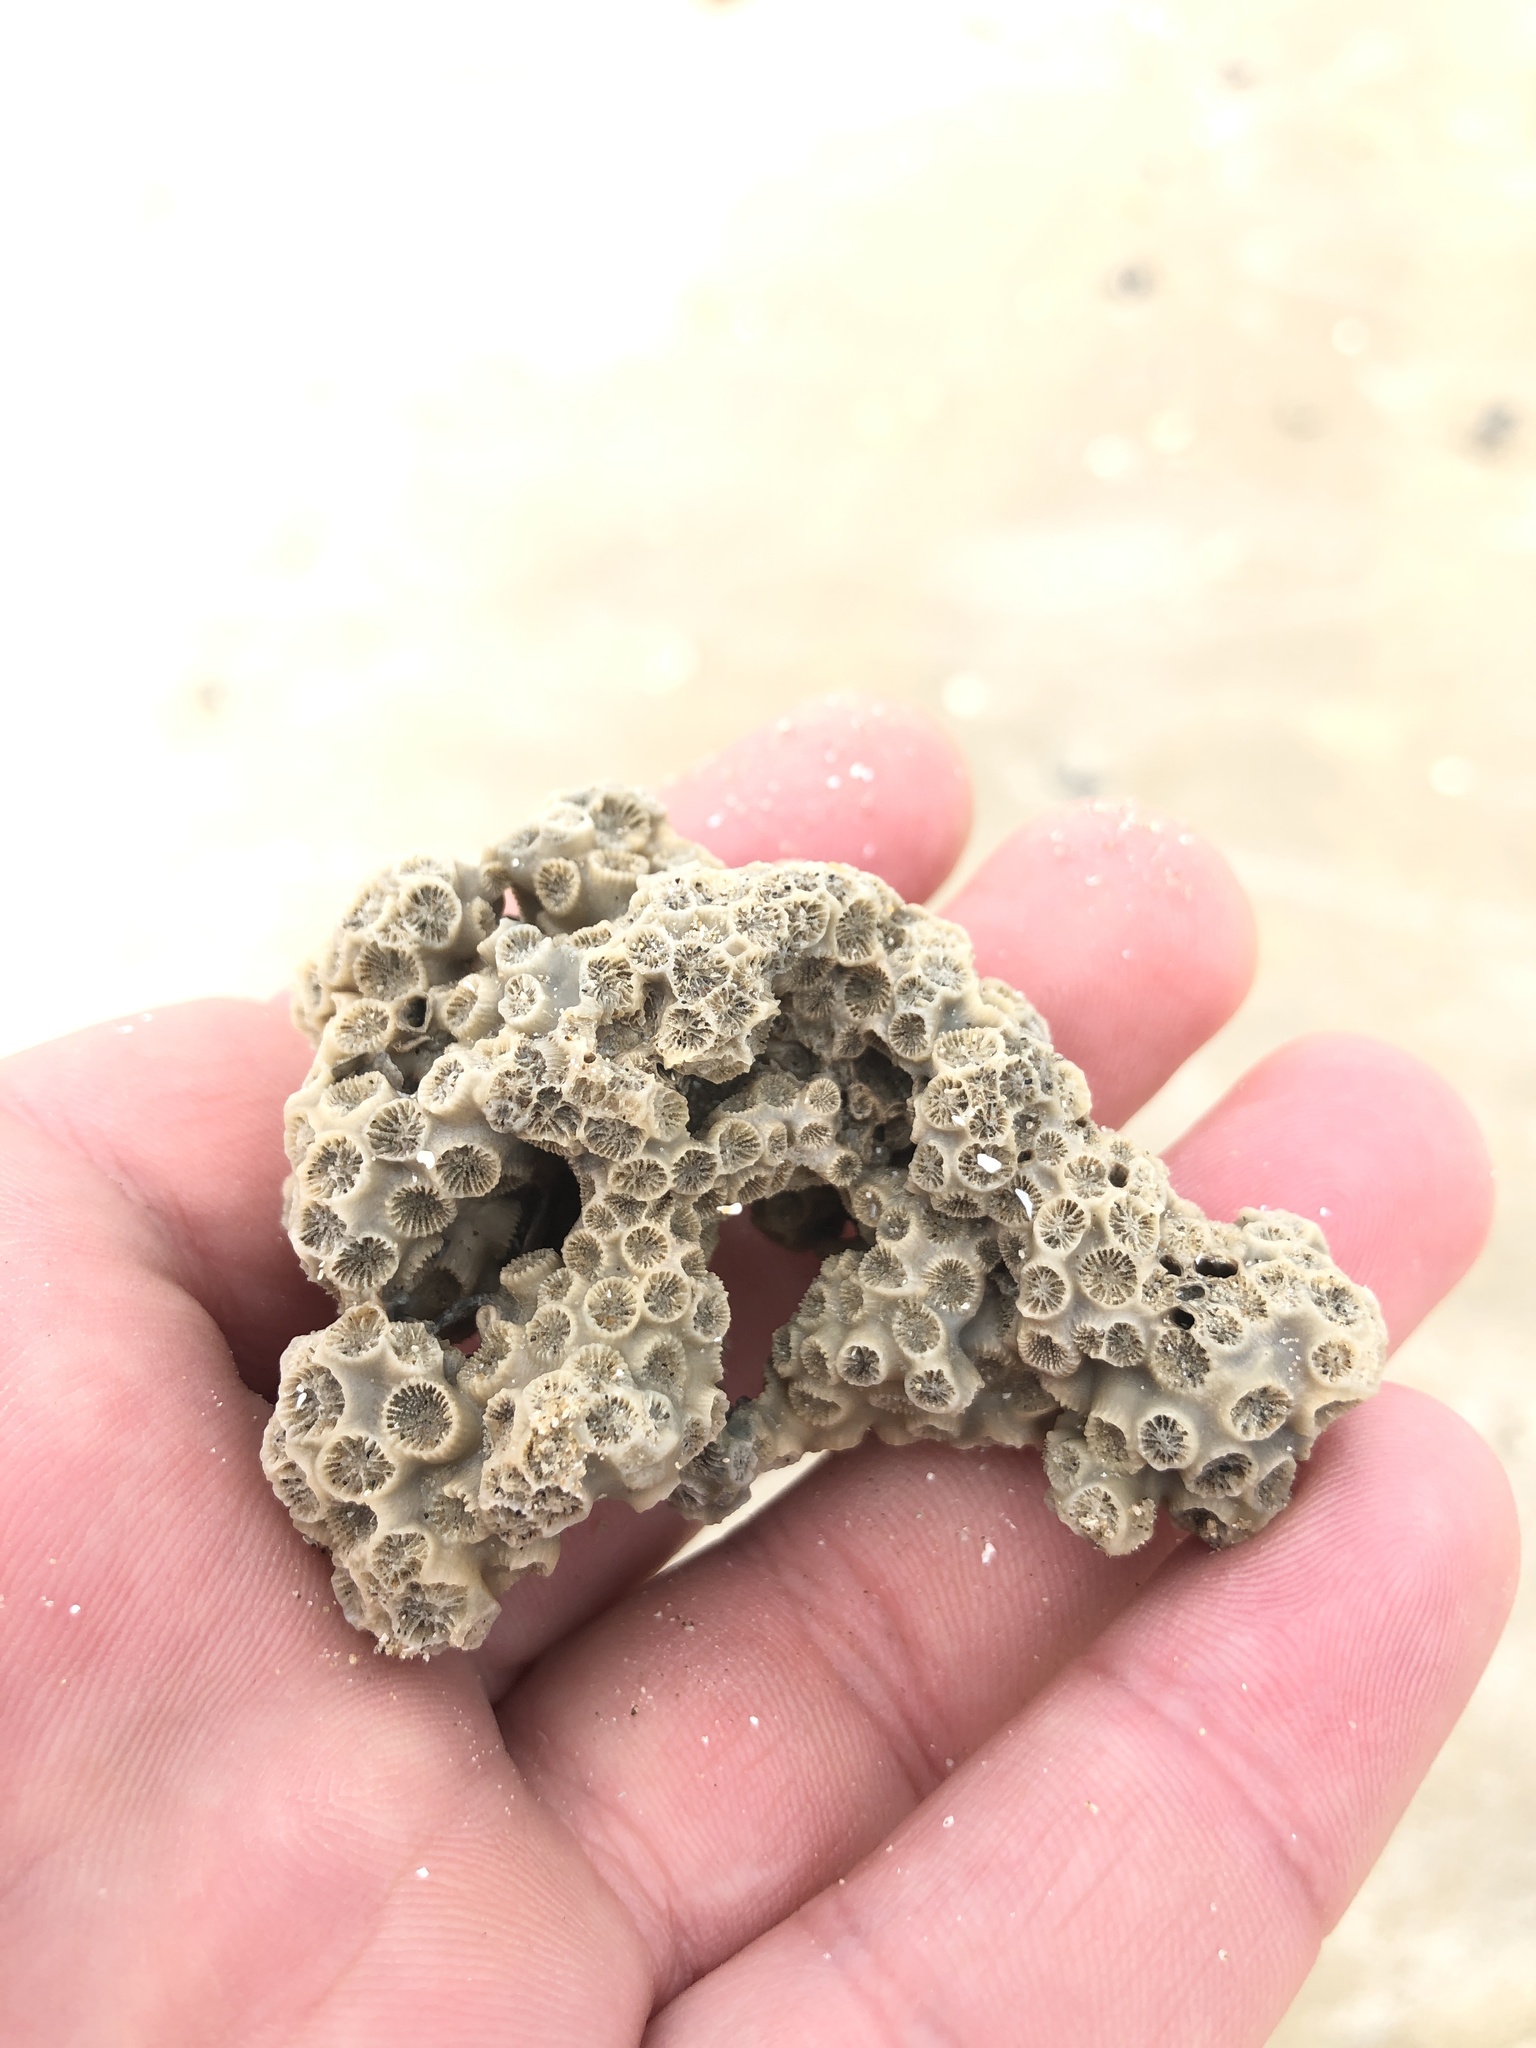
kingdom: Animalia
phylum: Cnidaria
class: Anthozoa
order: Scleractinia
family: Astrangiidae
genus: Astrangia
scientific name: Astrangia poculata
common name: Northern star coral
